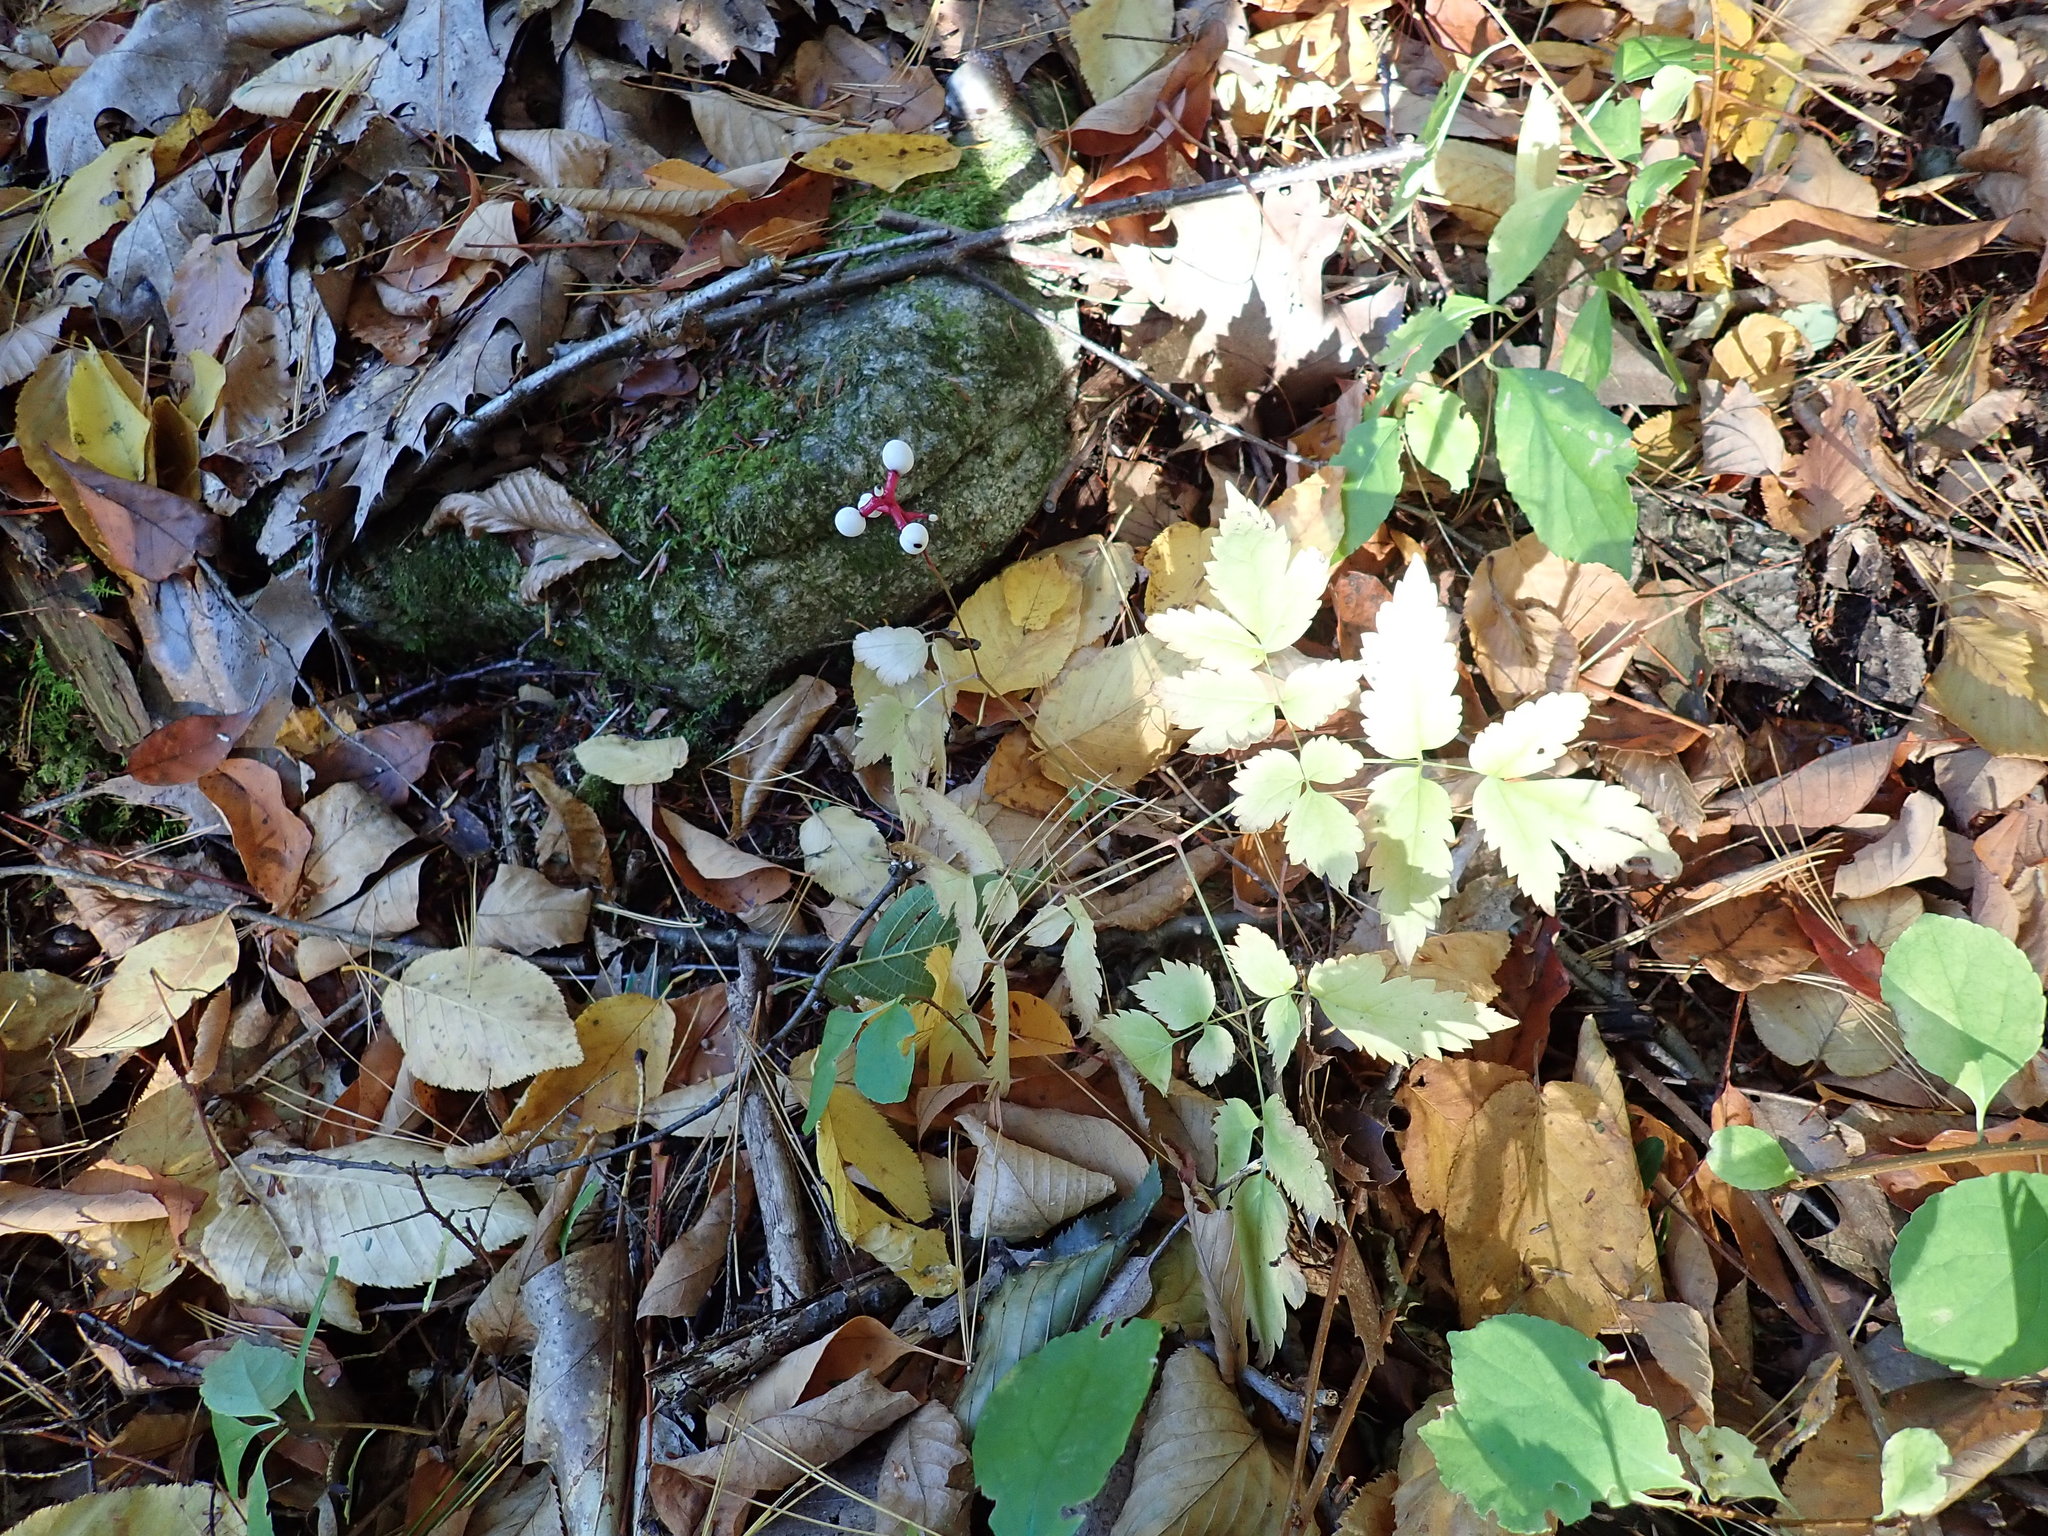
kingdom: Plantae
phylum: Tracheophyta
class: Magnoliopsida
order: Ranunculales
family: Ranunculaceae
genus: Actaea
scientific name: Actaea pachypoda
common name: Doll's-eyes
